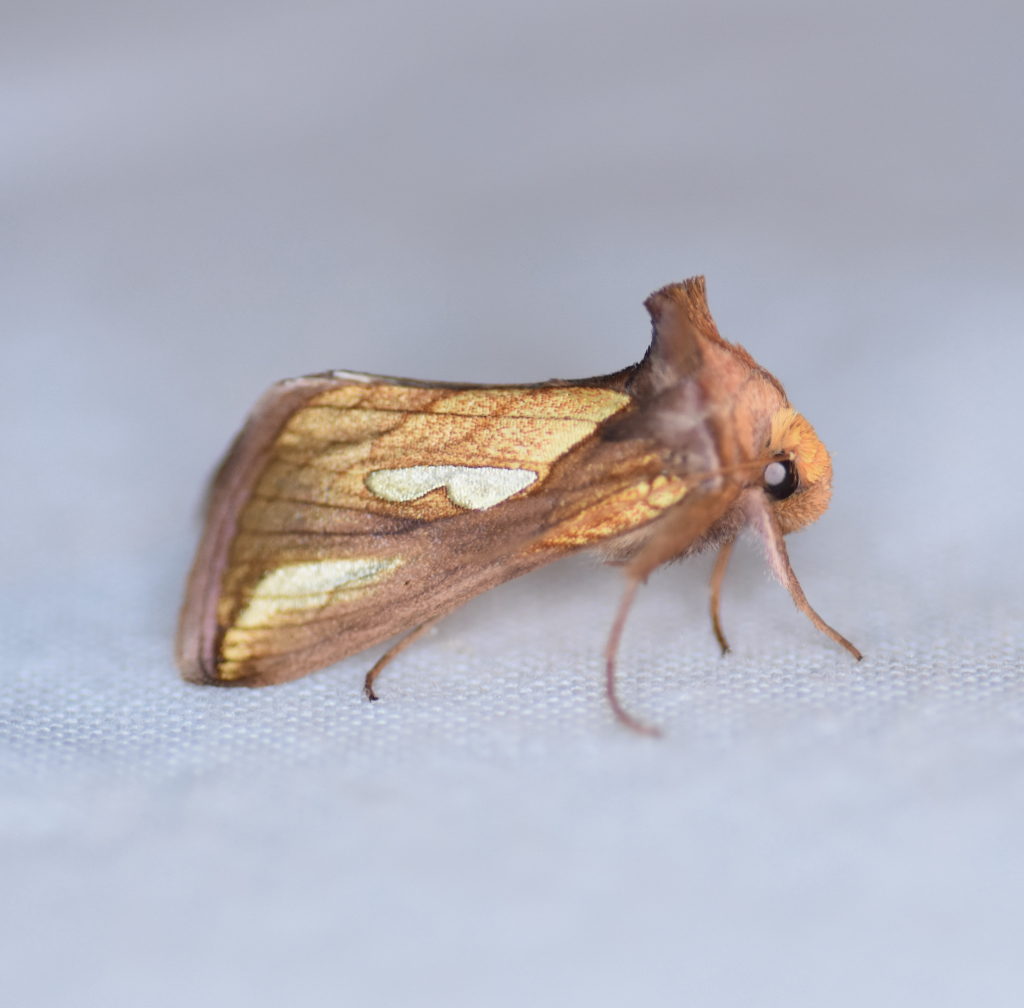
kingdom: Animalia
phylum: Arthropoda
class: Insecta
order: Lepidoptera
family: Noctuidae
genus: Plusia
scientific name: Plusia contexta
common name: Connected looper moth
